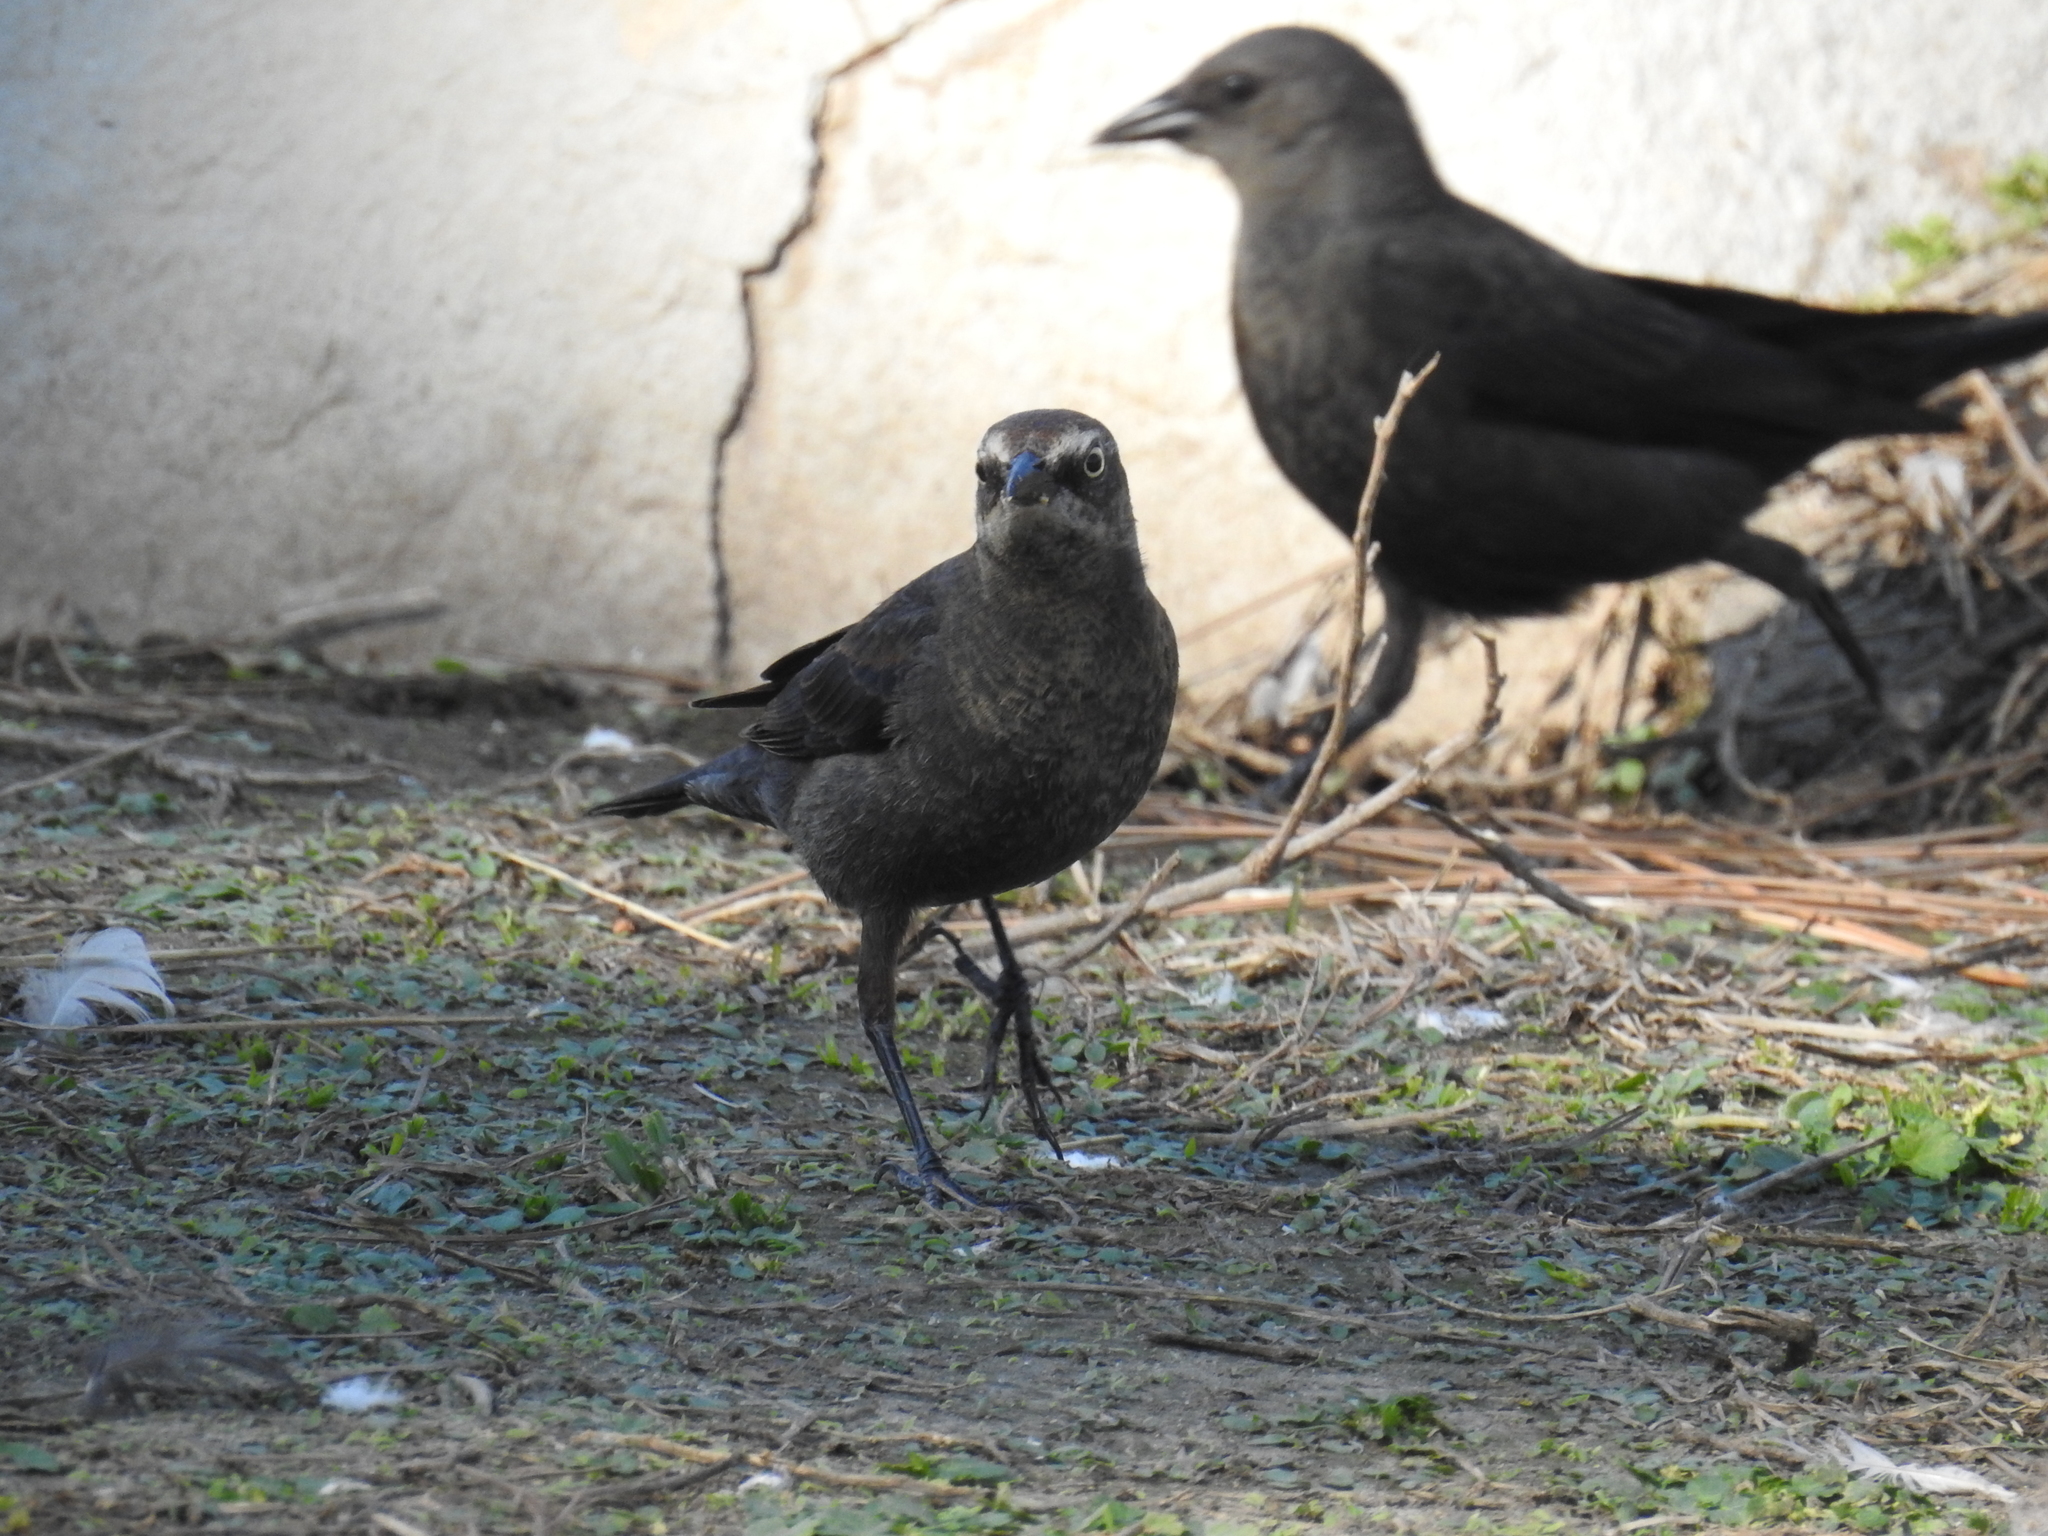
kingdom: Animalia
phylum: Chordata
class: Aves
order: Passeriformes
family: Icteridae
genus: Euphagus
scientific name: Euphagus carolinus
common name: Rusty blackbird
